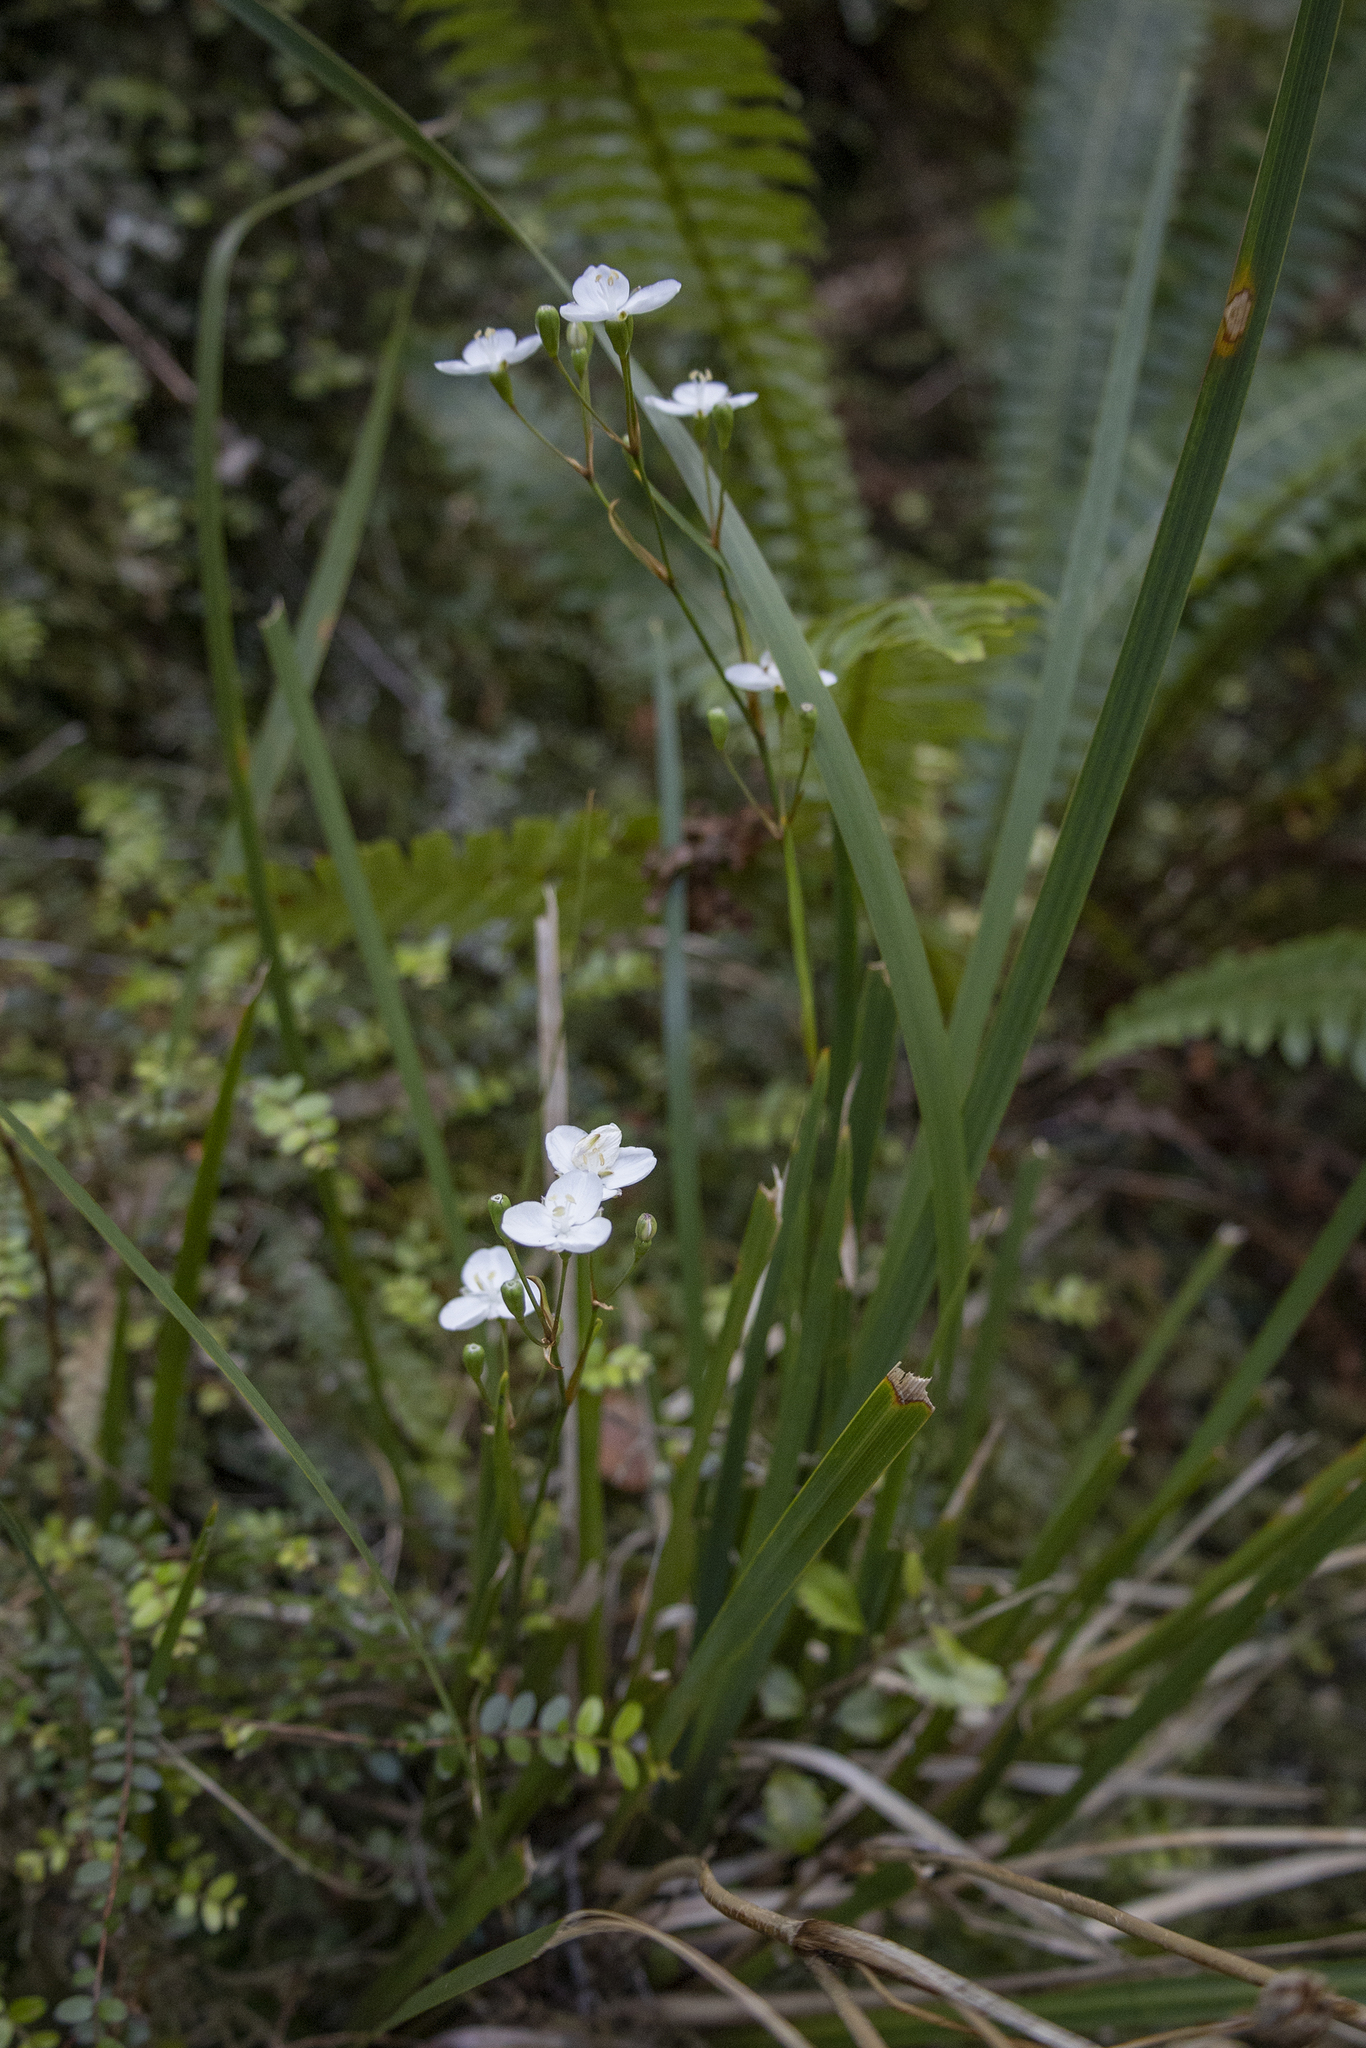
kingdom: Plantae
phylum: Tracheophyta
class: Liliopsida
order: Asparagales
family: Iridaceae
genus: Libertia
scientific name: Libertia ixioides
